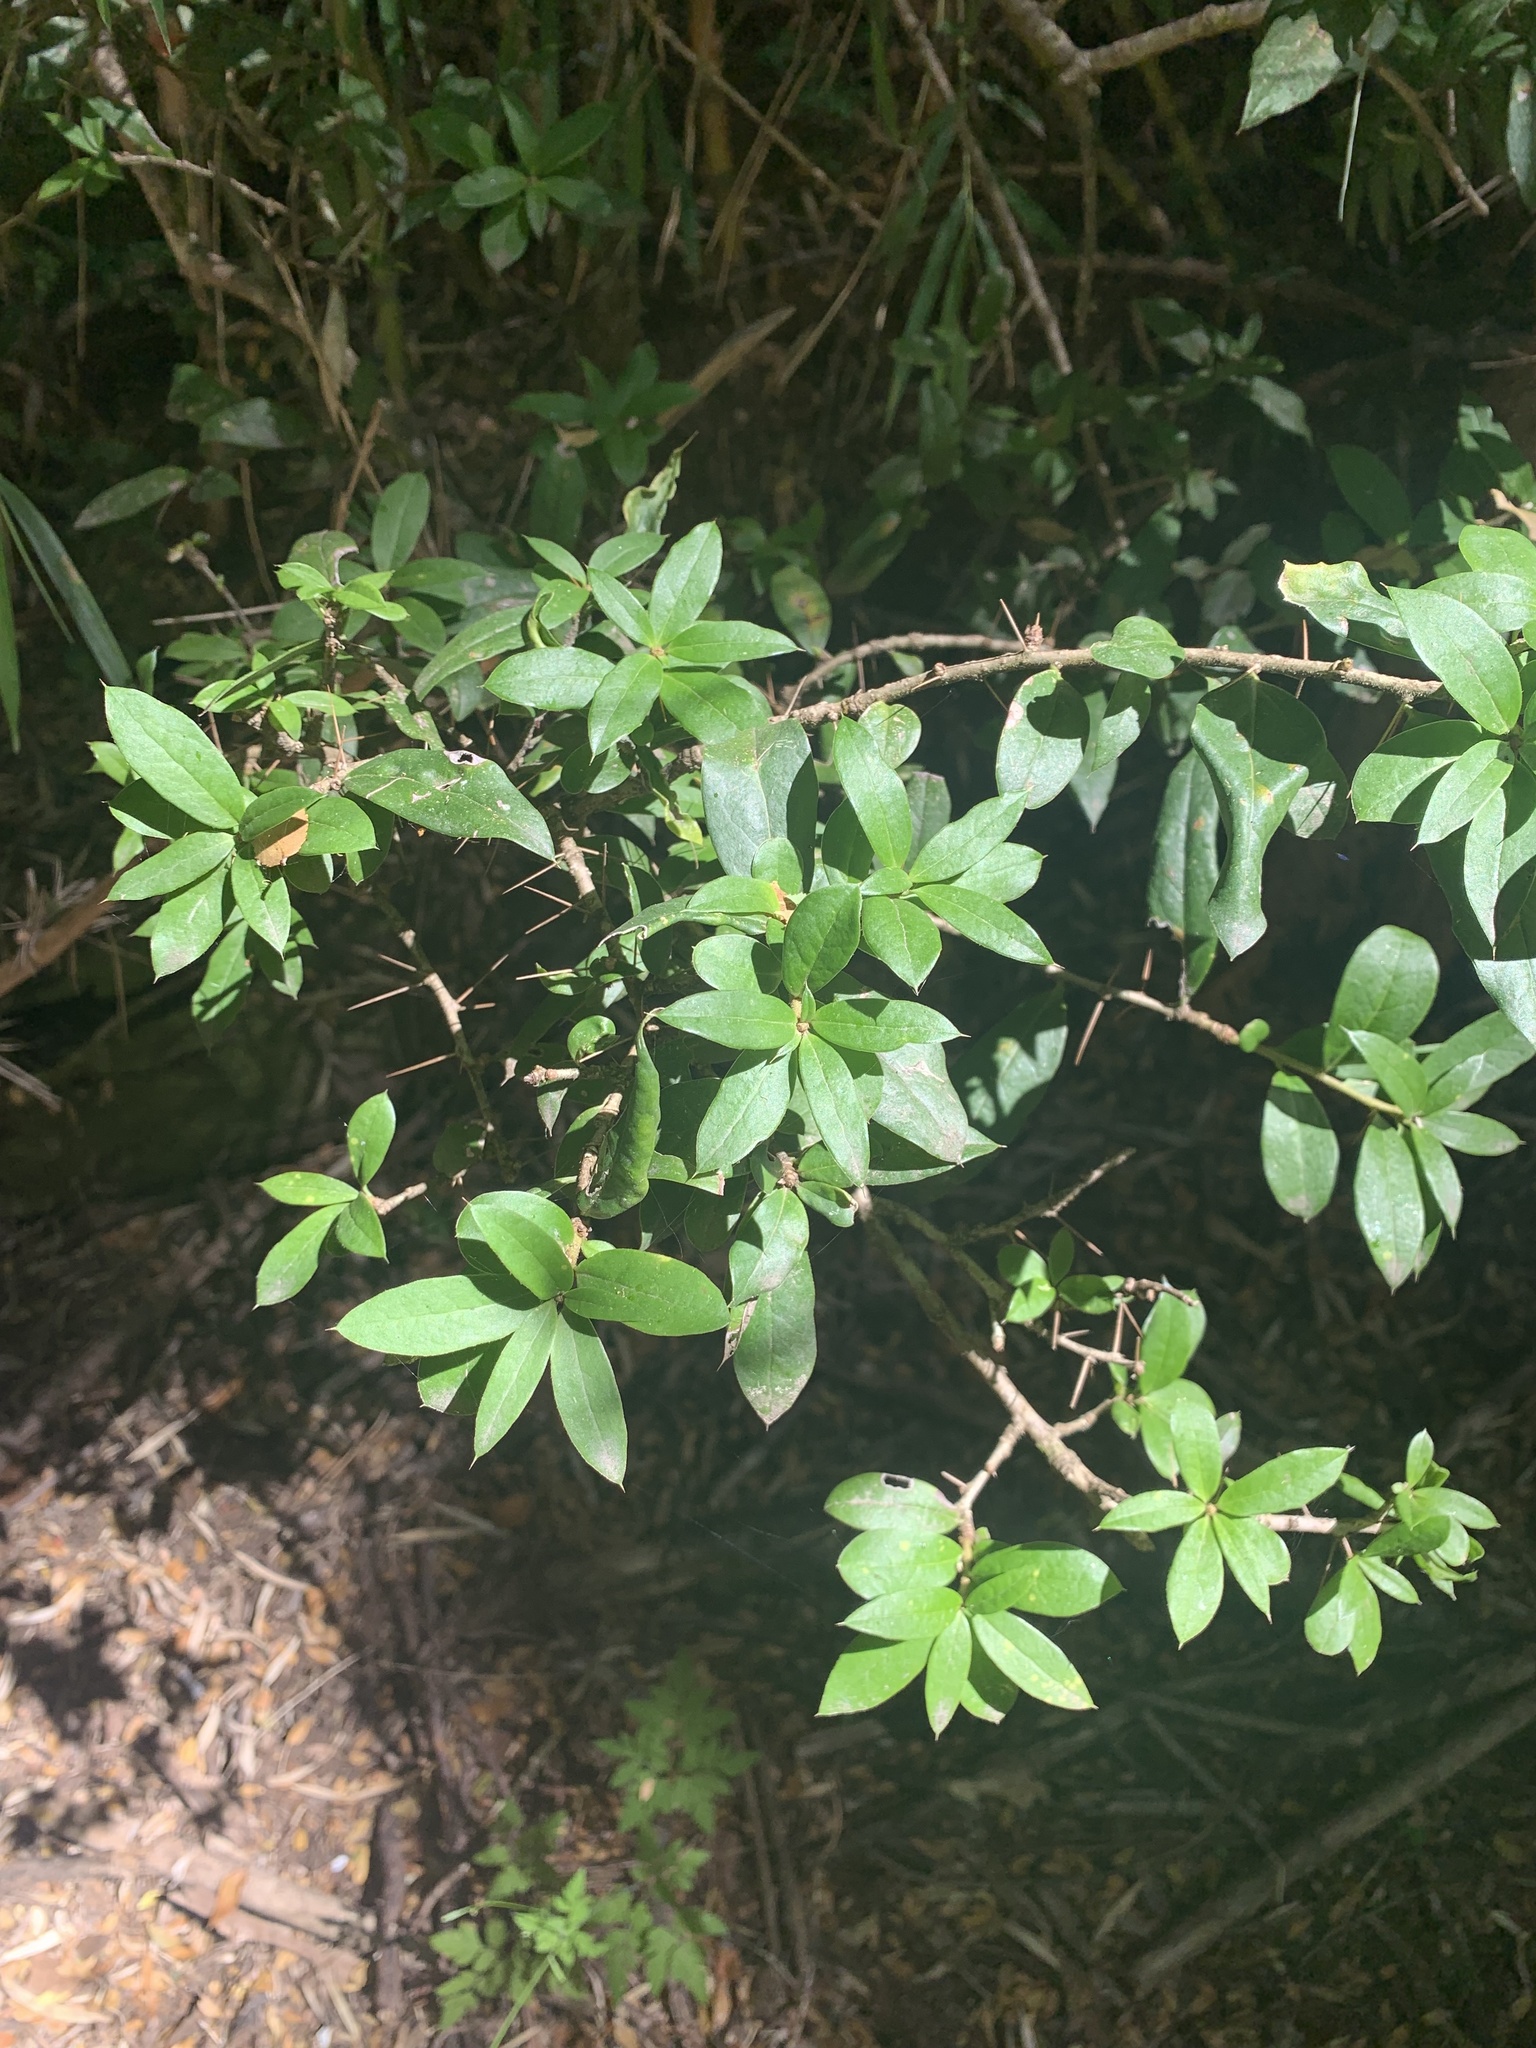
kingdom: Plantae
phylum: Tracheophyta
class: Magnoliopsida
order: Asterales
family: Asteraceae
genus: Archidasyphyllum
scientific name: Archidasyphyllum diacanthoides
